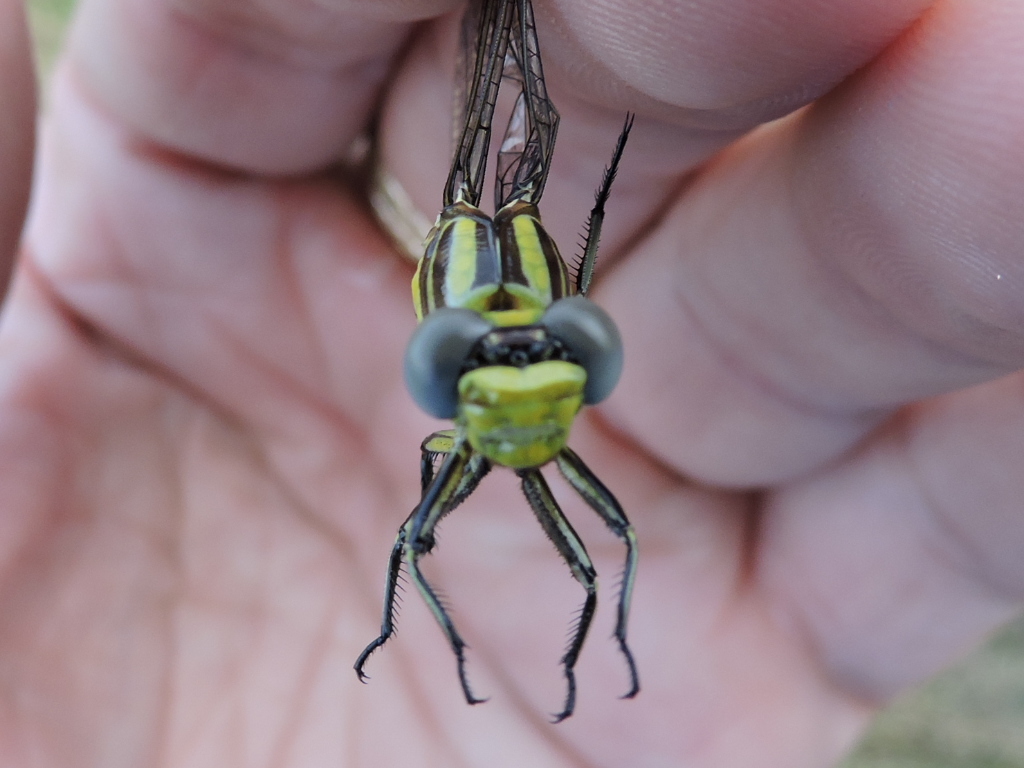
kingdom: Animalia
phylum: Arthropoda
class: Insecta
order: Odonata
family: Gomphidae
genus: Phanogomphus
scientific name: Phanogomphus militaris
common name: Sulphur-tipped clubtail
